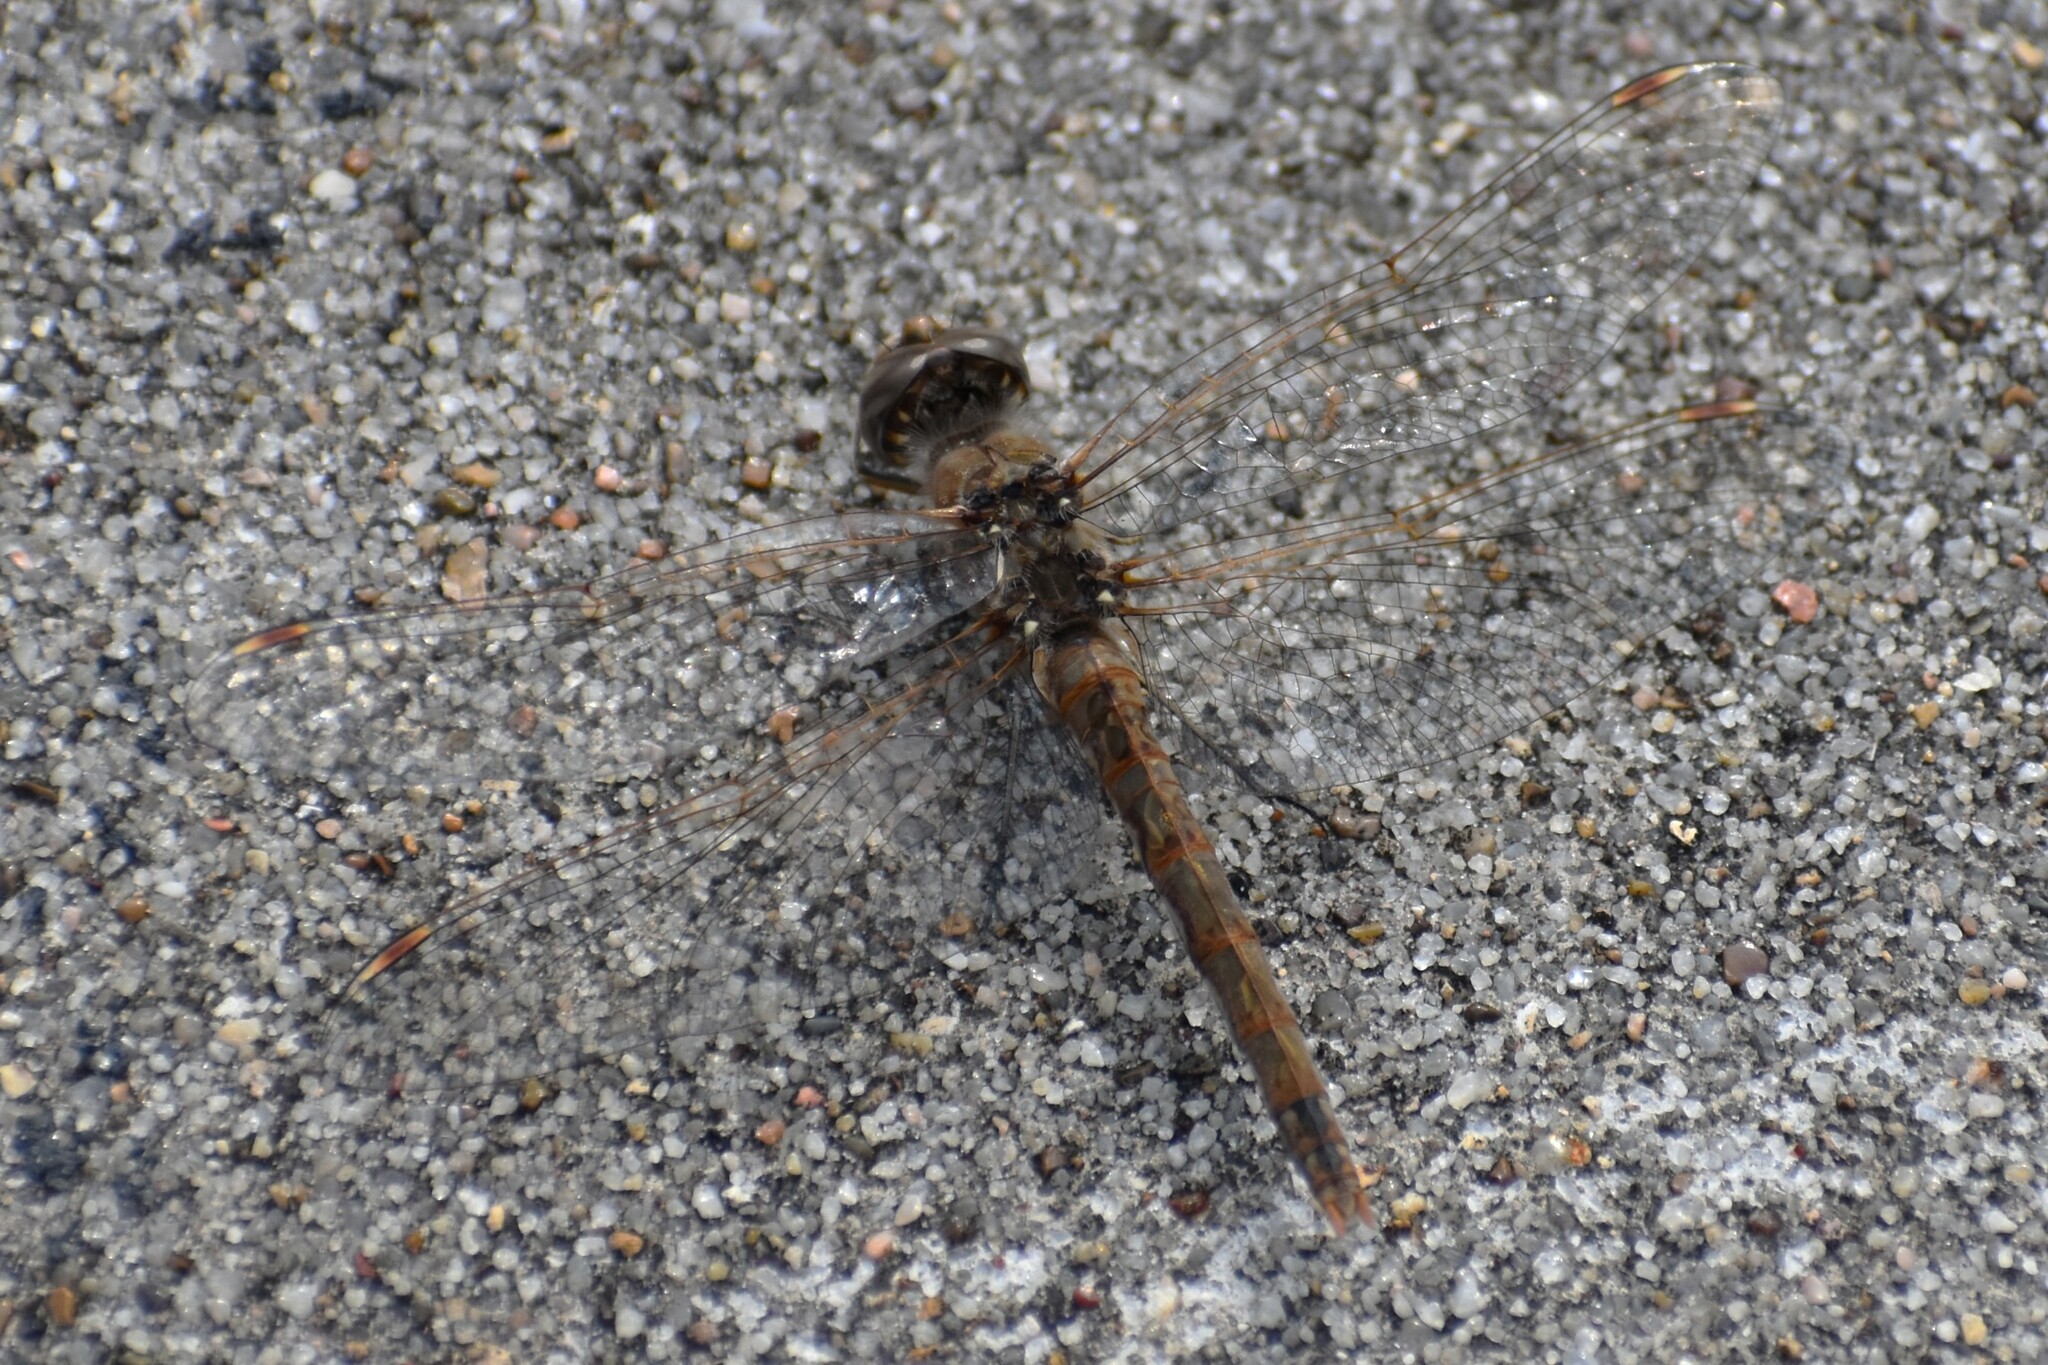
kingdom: Animalia
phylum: Arthropoda
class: Insecta
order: Odonata
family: Libellulidae
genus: Sympetrum
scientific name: Sympetrum corruptum
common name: Variegated meadowhawk
